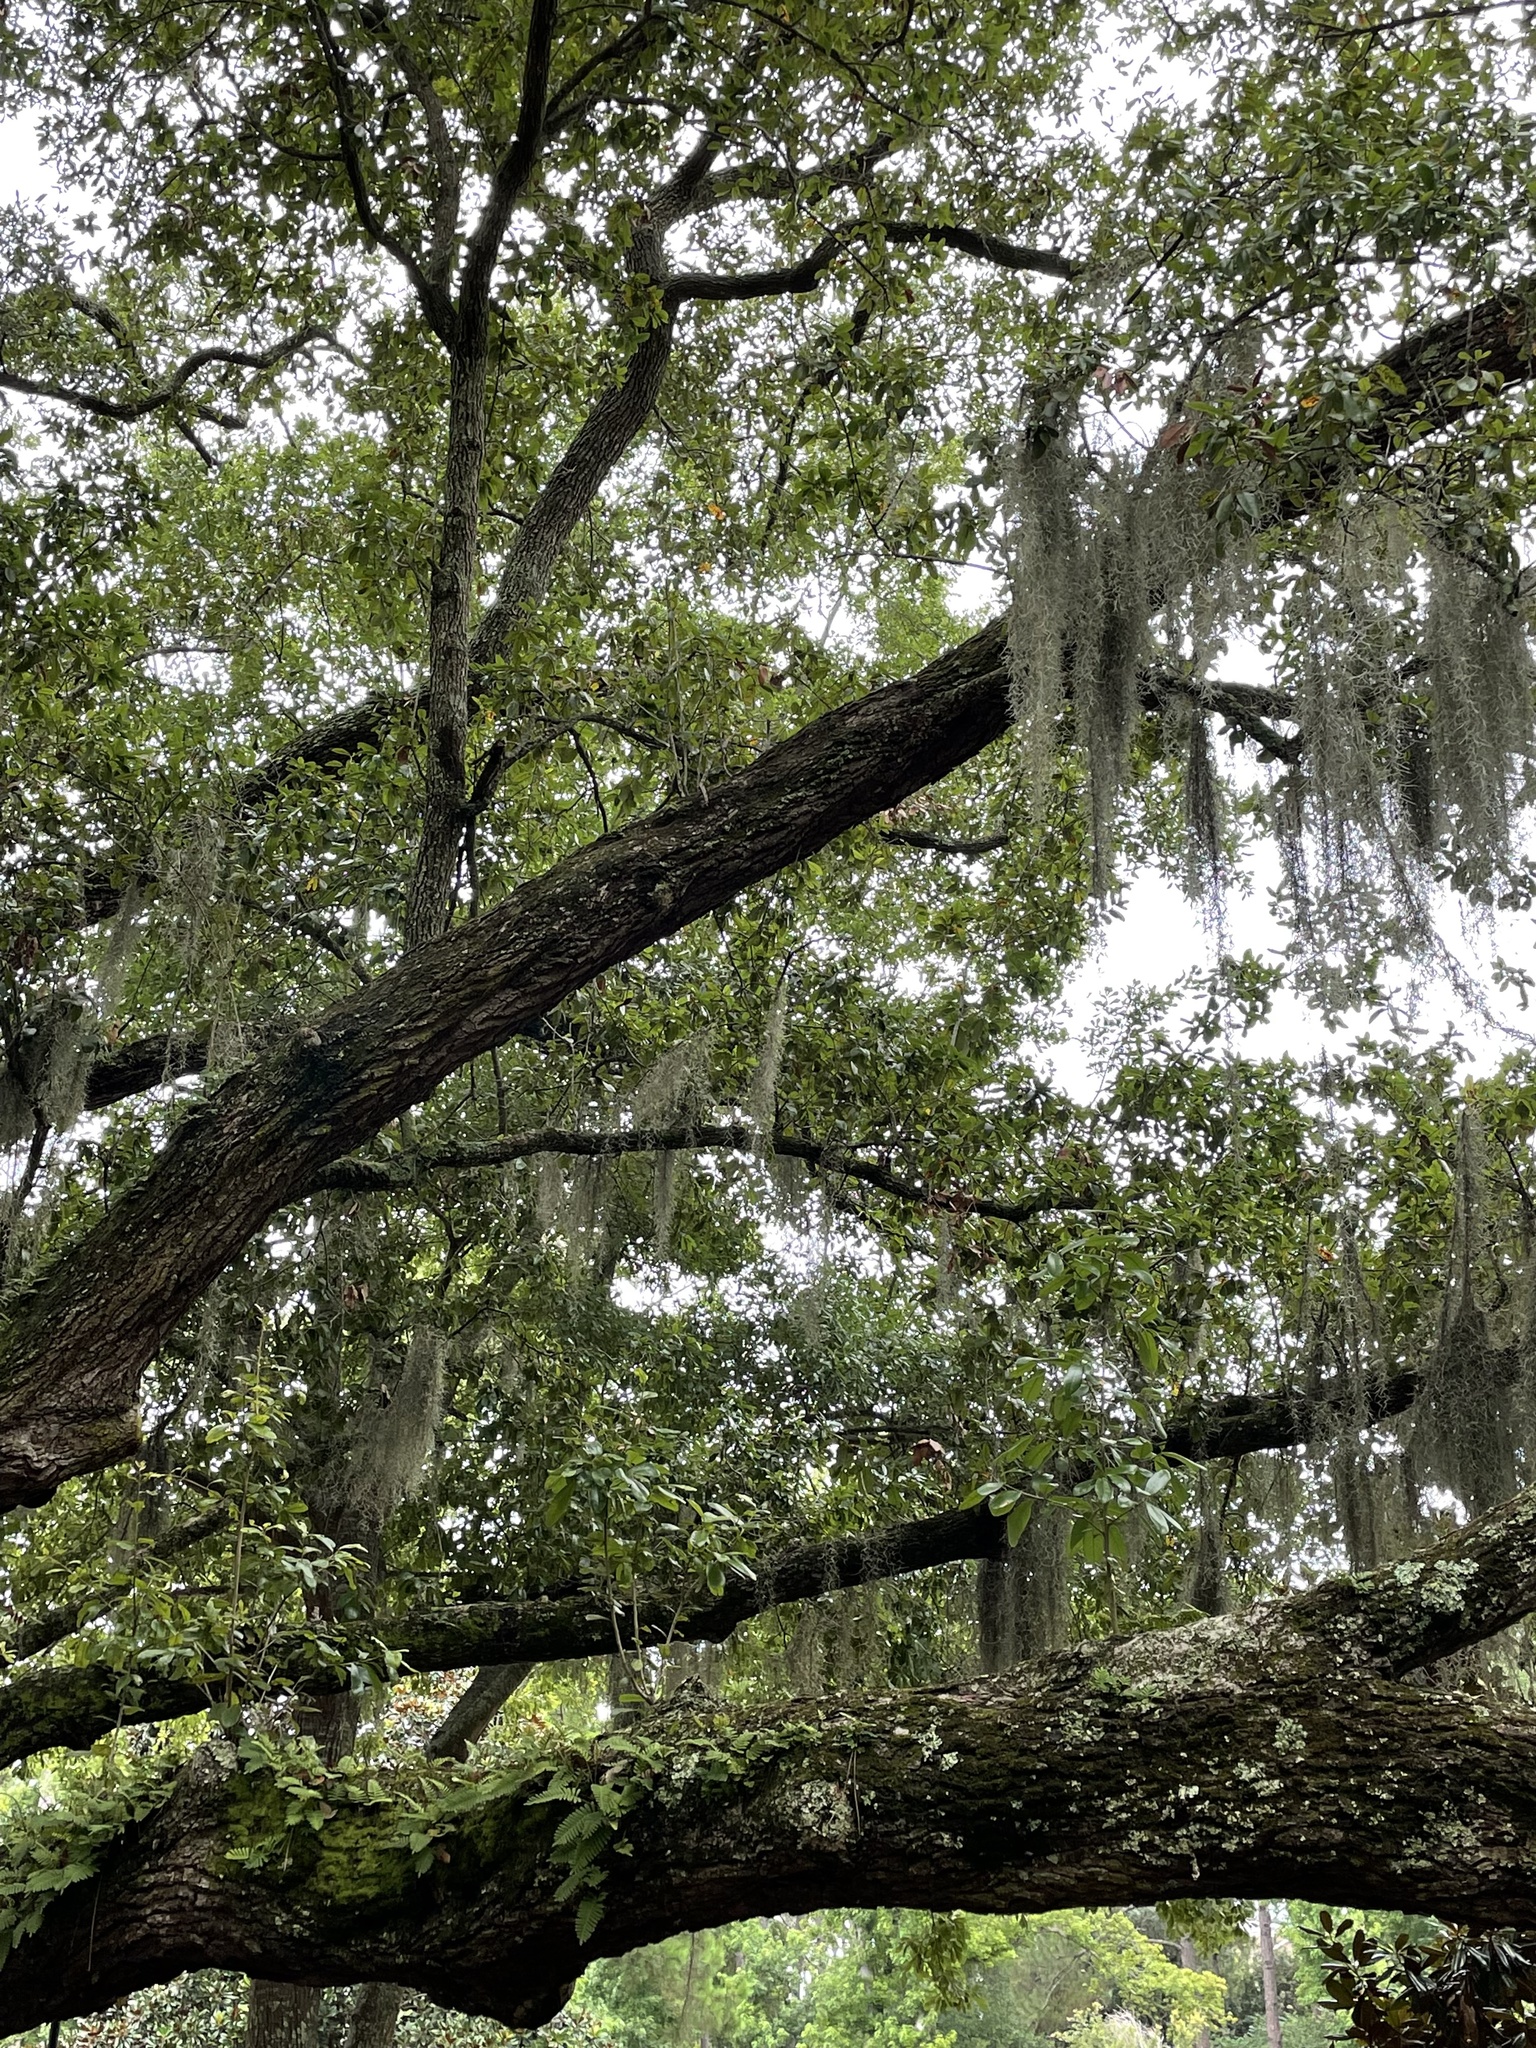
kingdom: Plantae
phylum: Tracheophyta
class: Magnoliopsida
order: Fagales
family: Fagaceae
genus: Quercus
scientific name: Quercus virginiana
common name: Southern live oak
